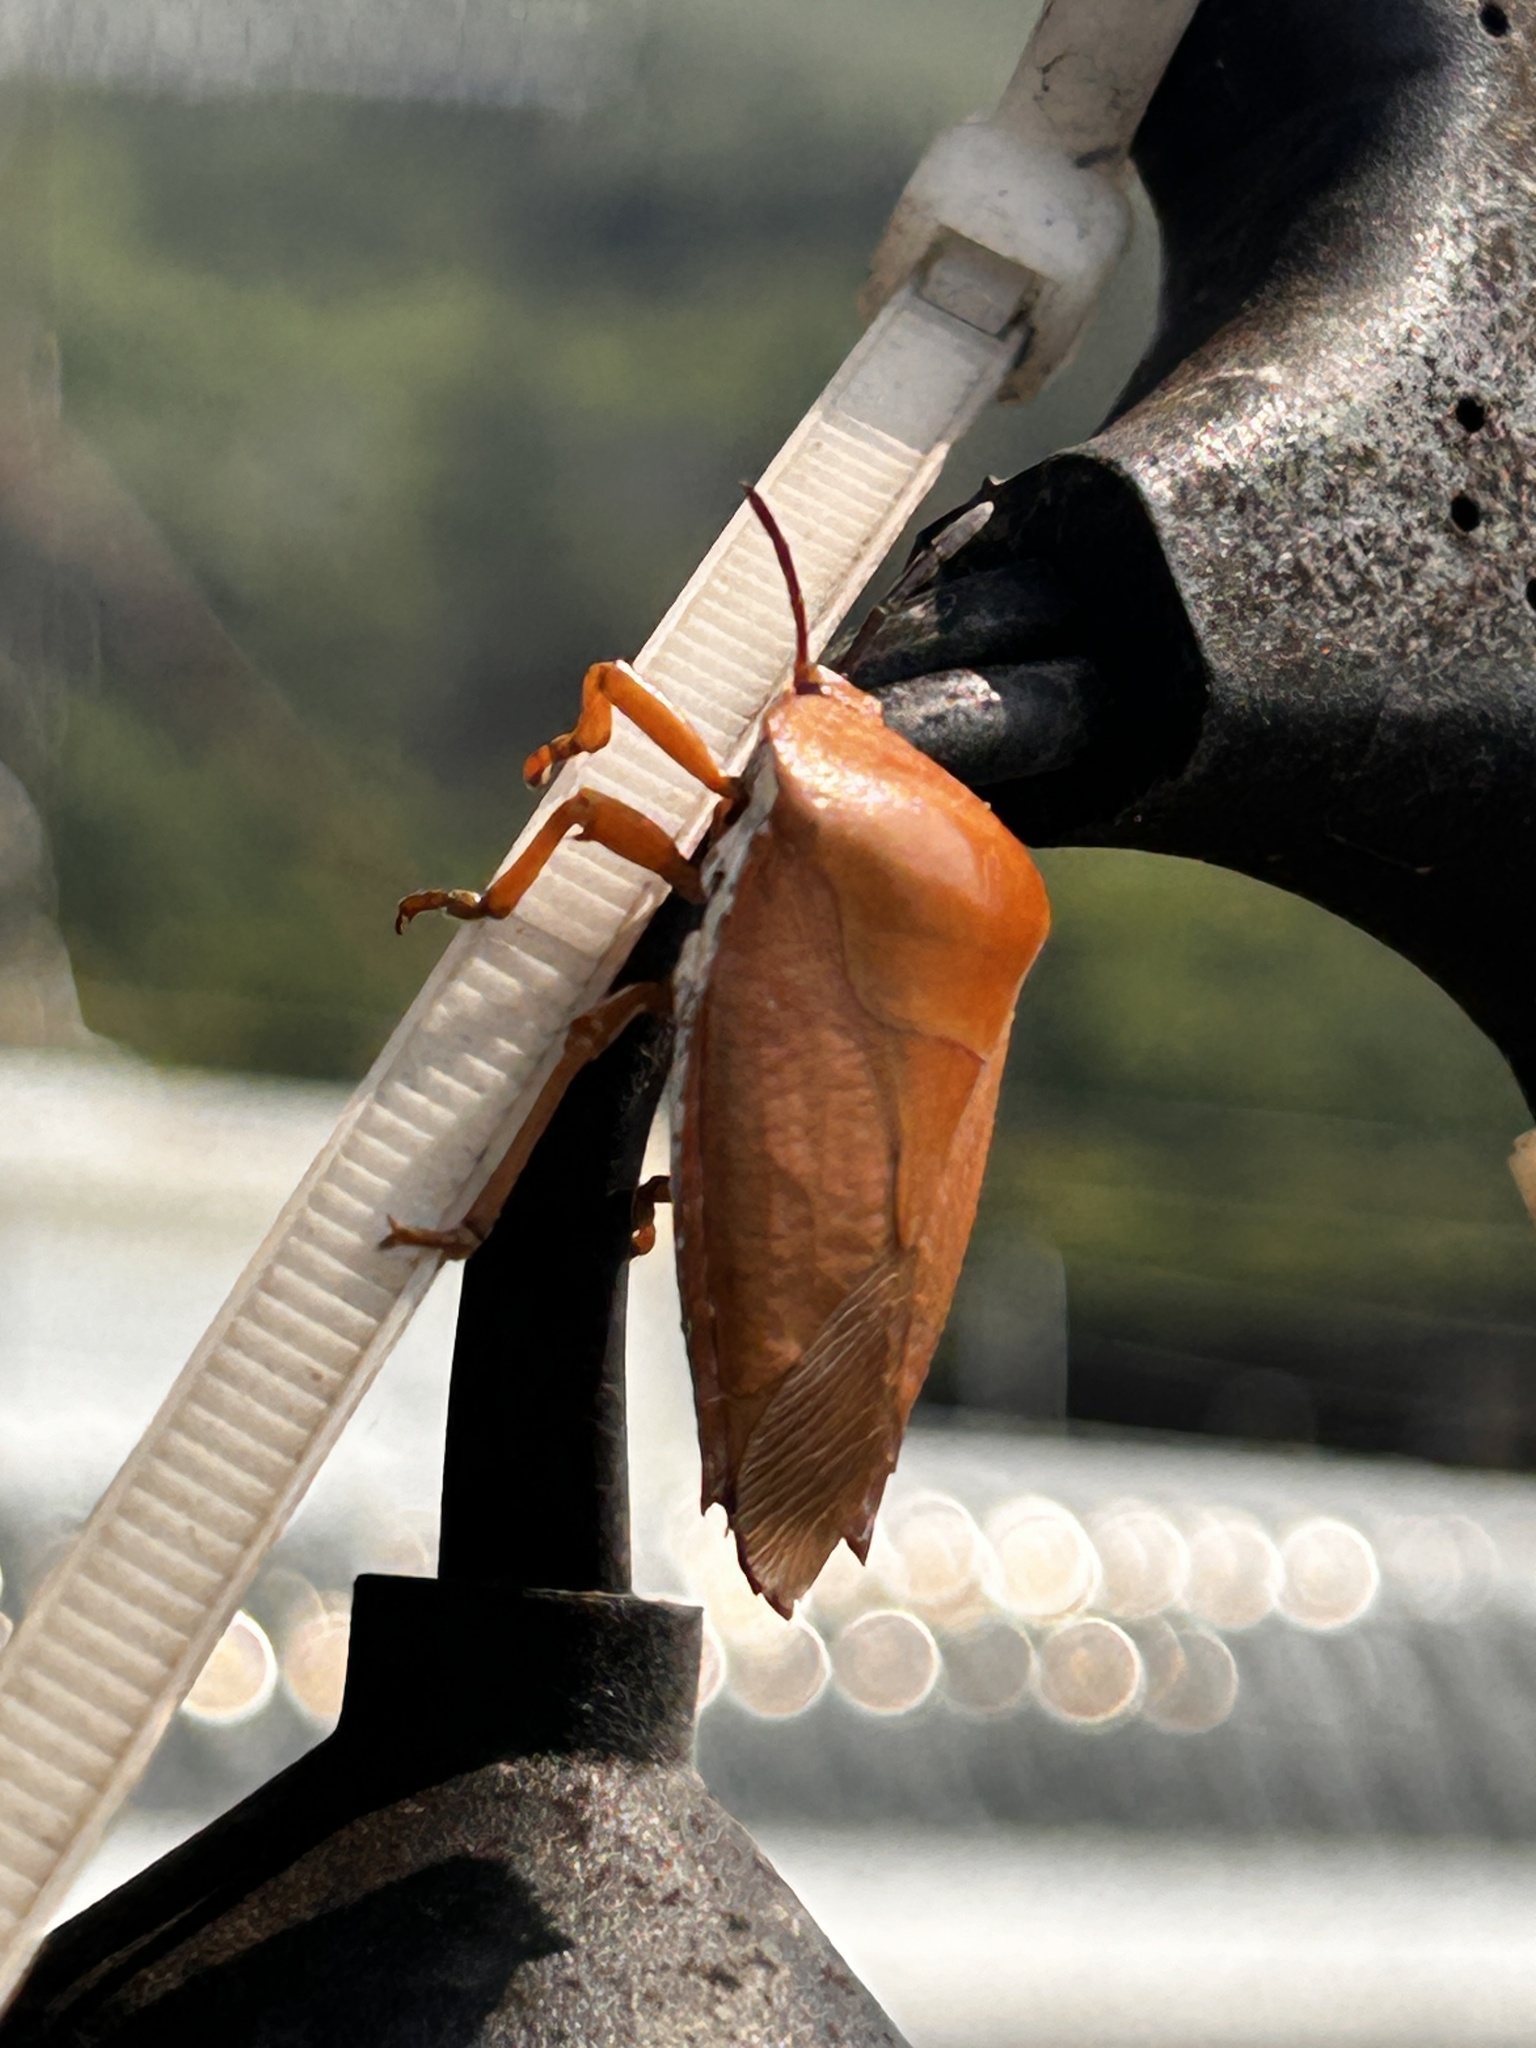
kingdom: Animalia
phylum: Arthropoda
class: Insecta
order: Hemiptera
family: Tessaratomidae
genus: Tessaratoma
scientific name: Tessaratoma papillosa
